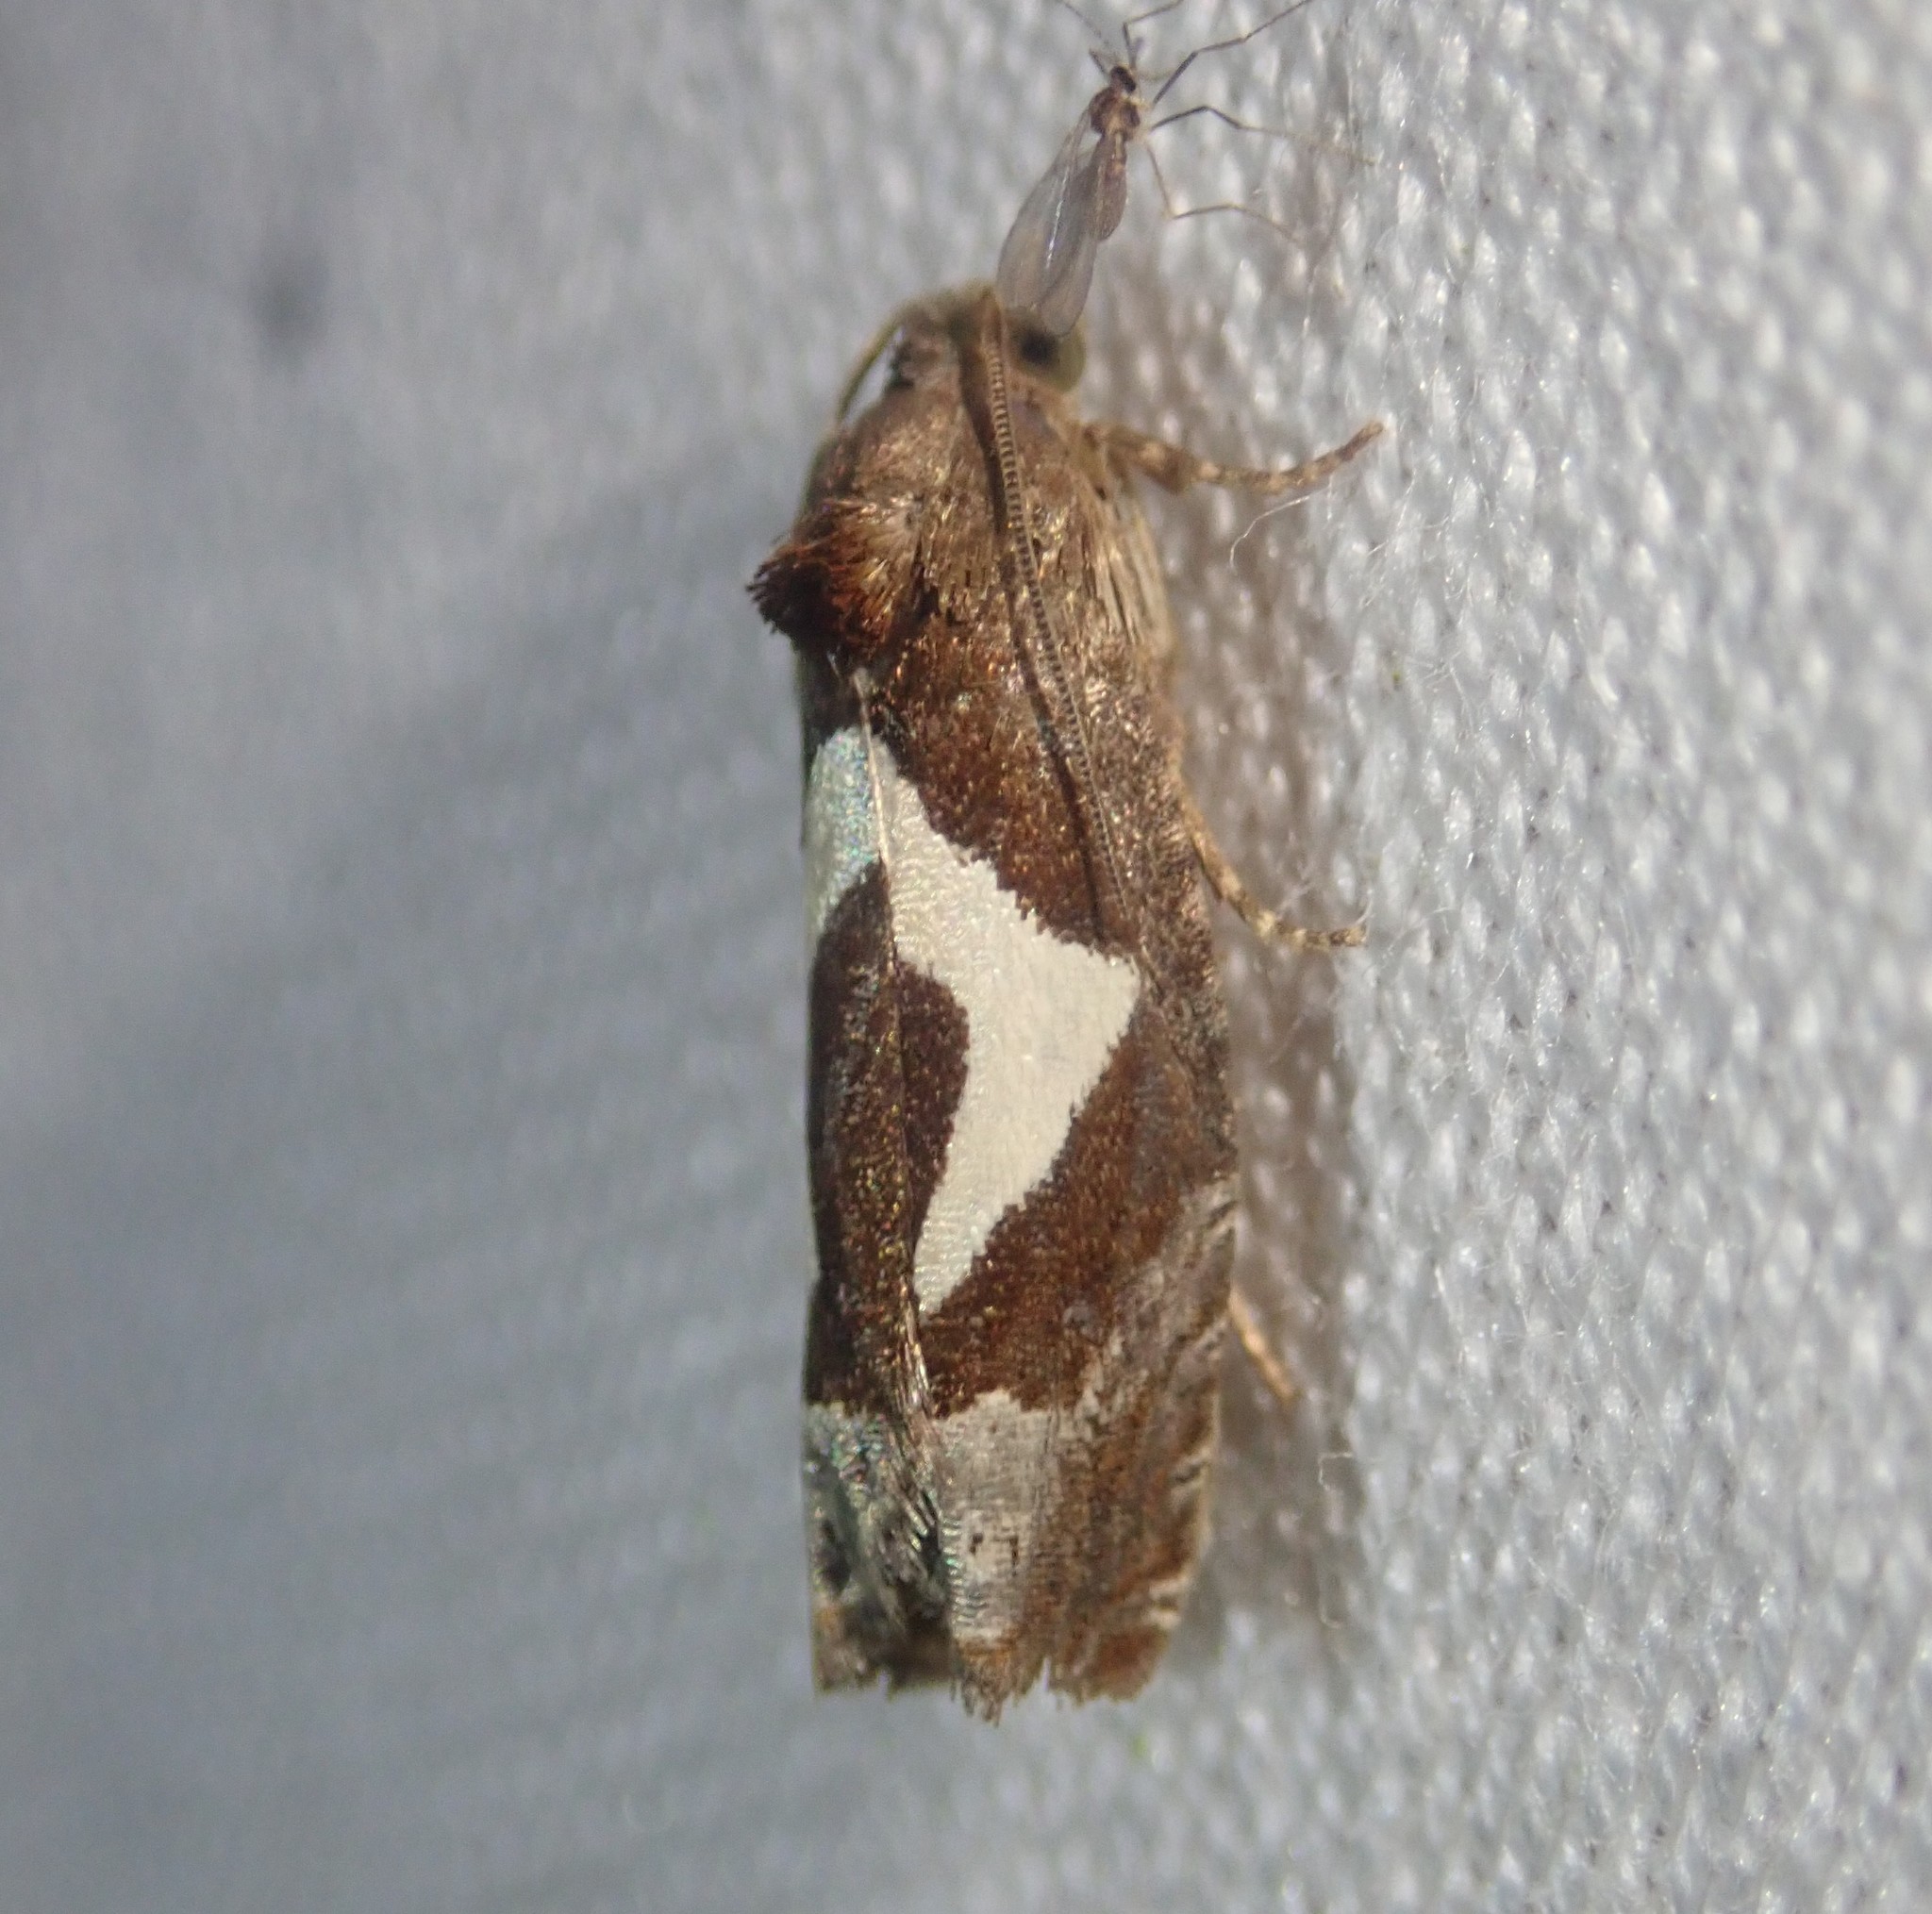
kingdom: Animalia
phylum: Arthropoda
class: Insecta
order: Lepidoptera
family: Tortricidae
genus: Epiblema
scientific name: Epiblema foenella
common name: White-foot bell
